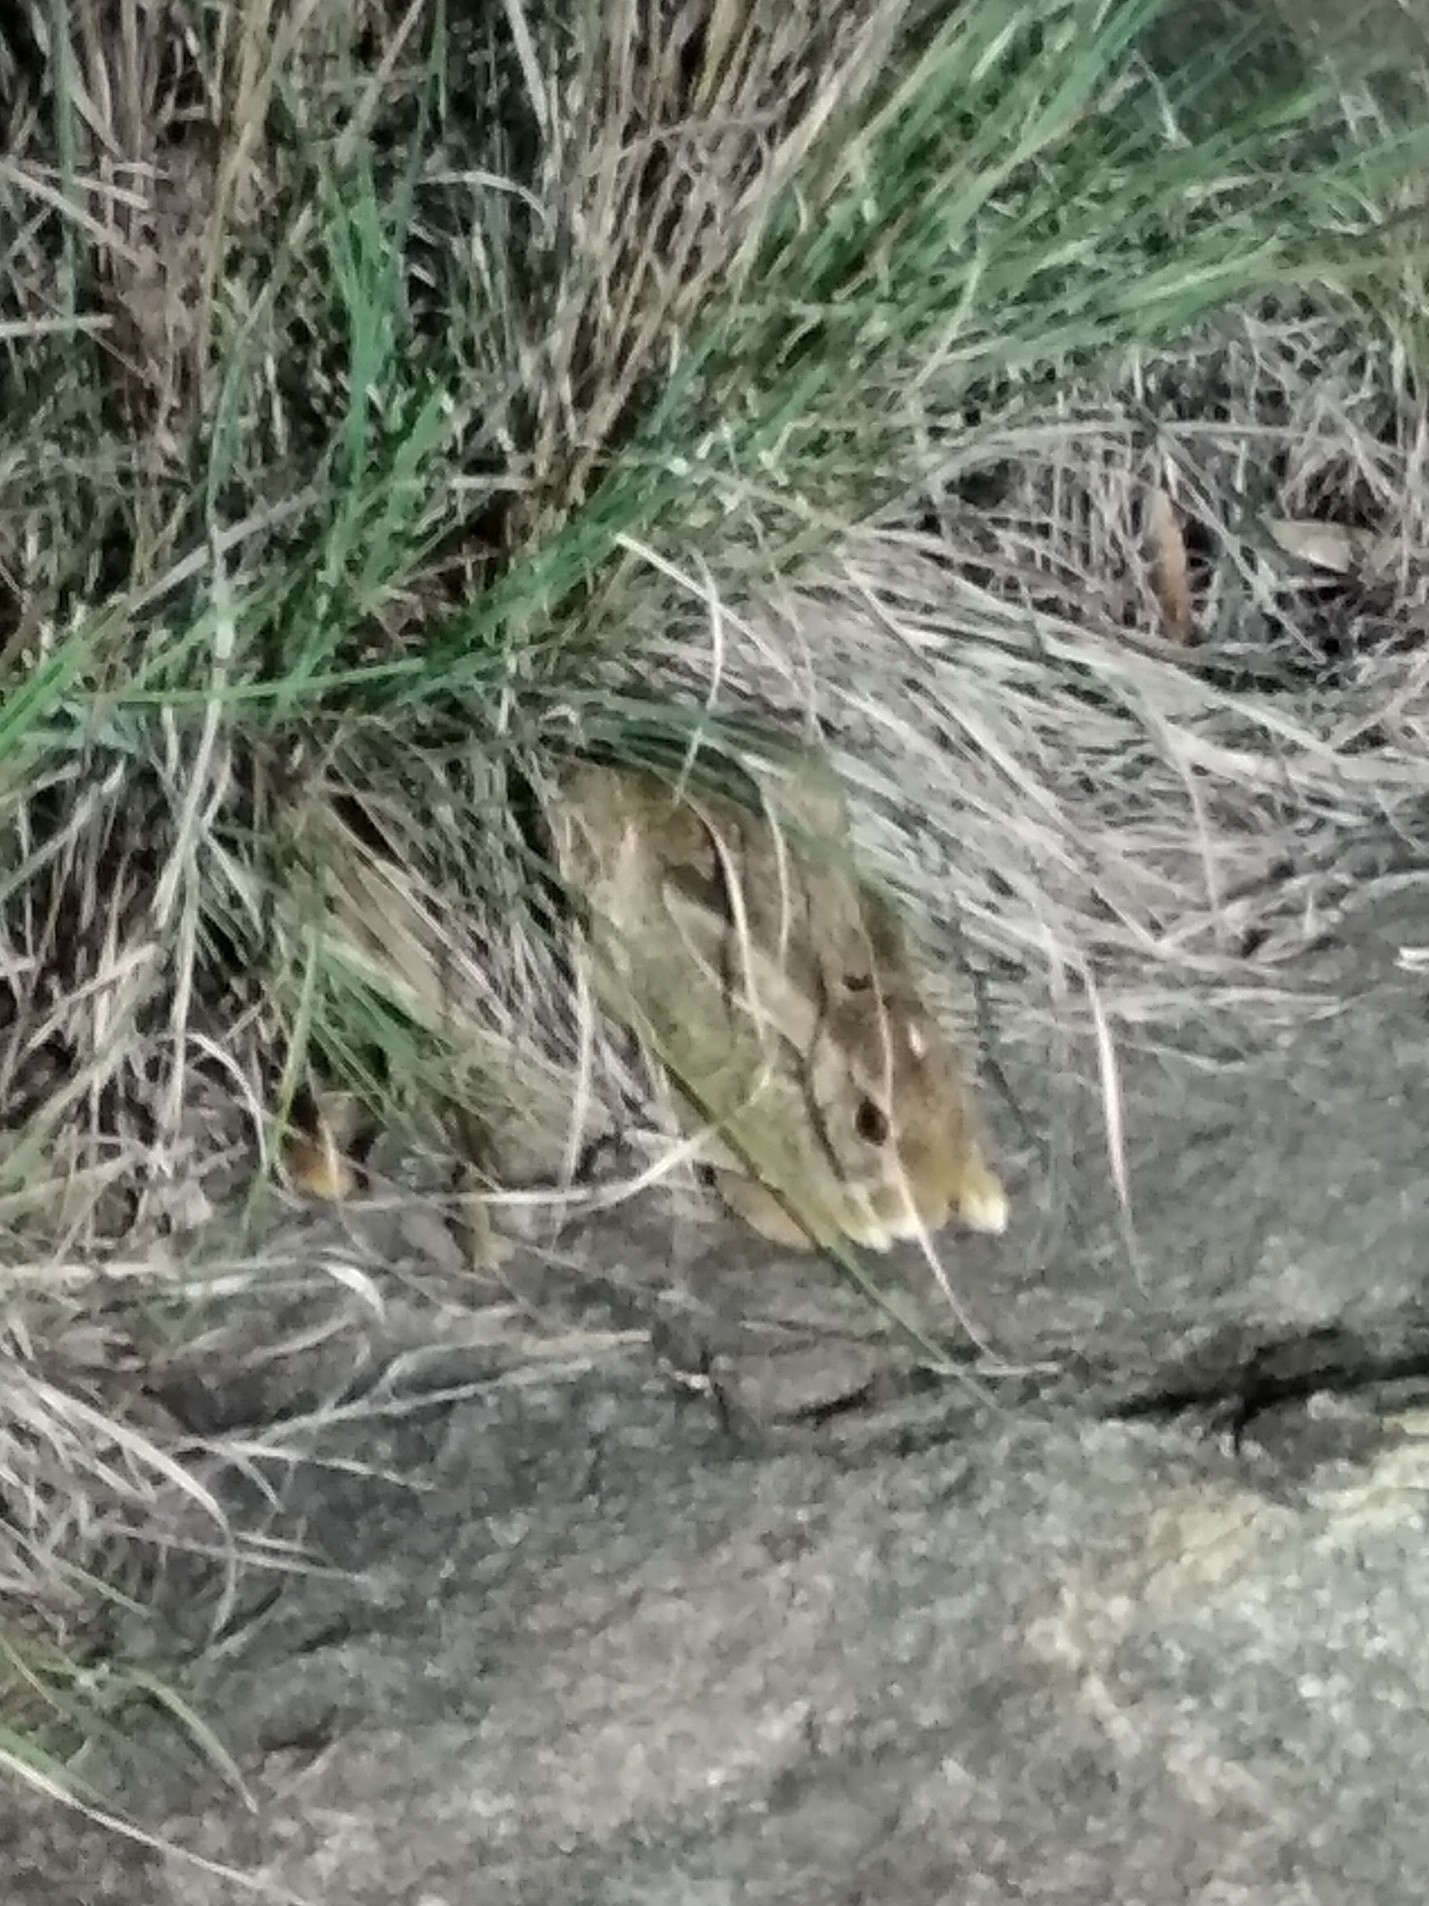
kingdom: Animalia
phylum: Chordata
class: Mammalia
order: Lagomorpha
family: Leporidae
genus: Lepus
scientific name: Lepus nigricollis
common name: Indian hare
